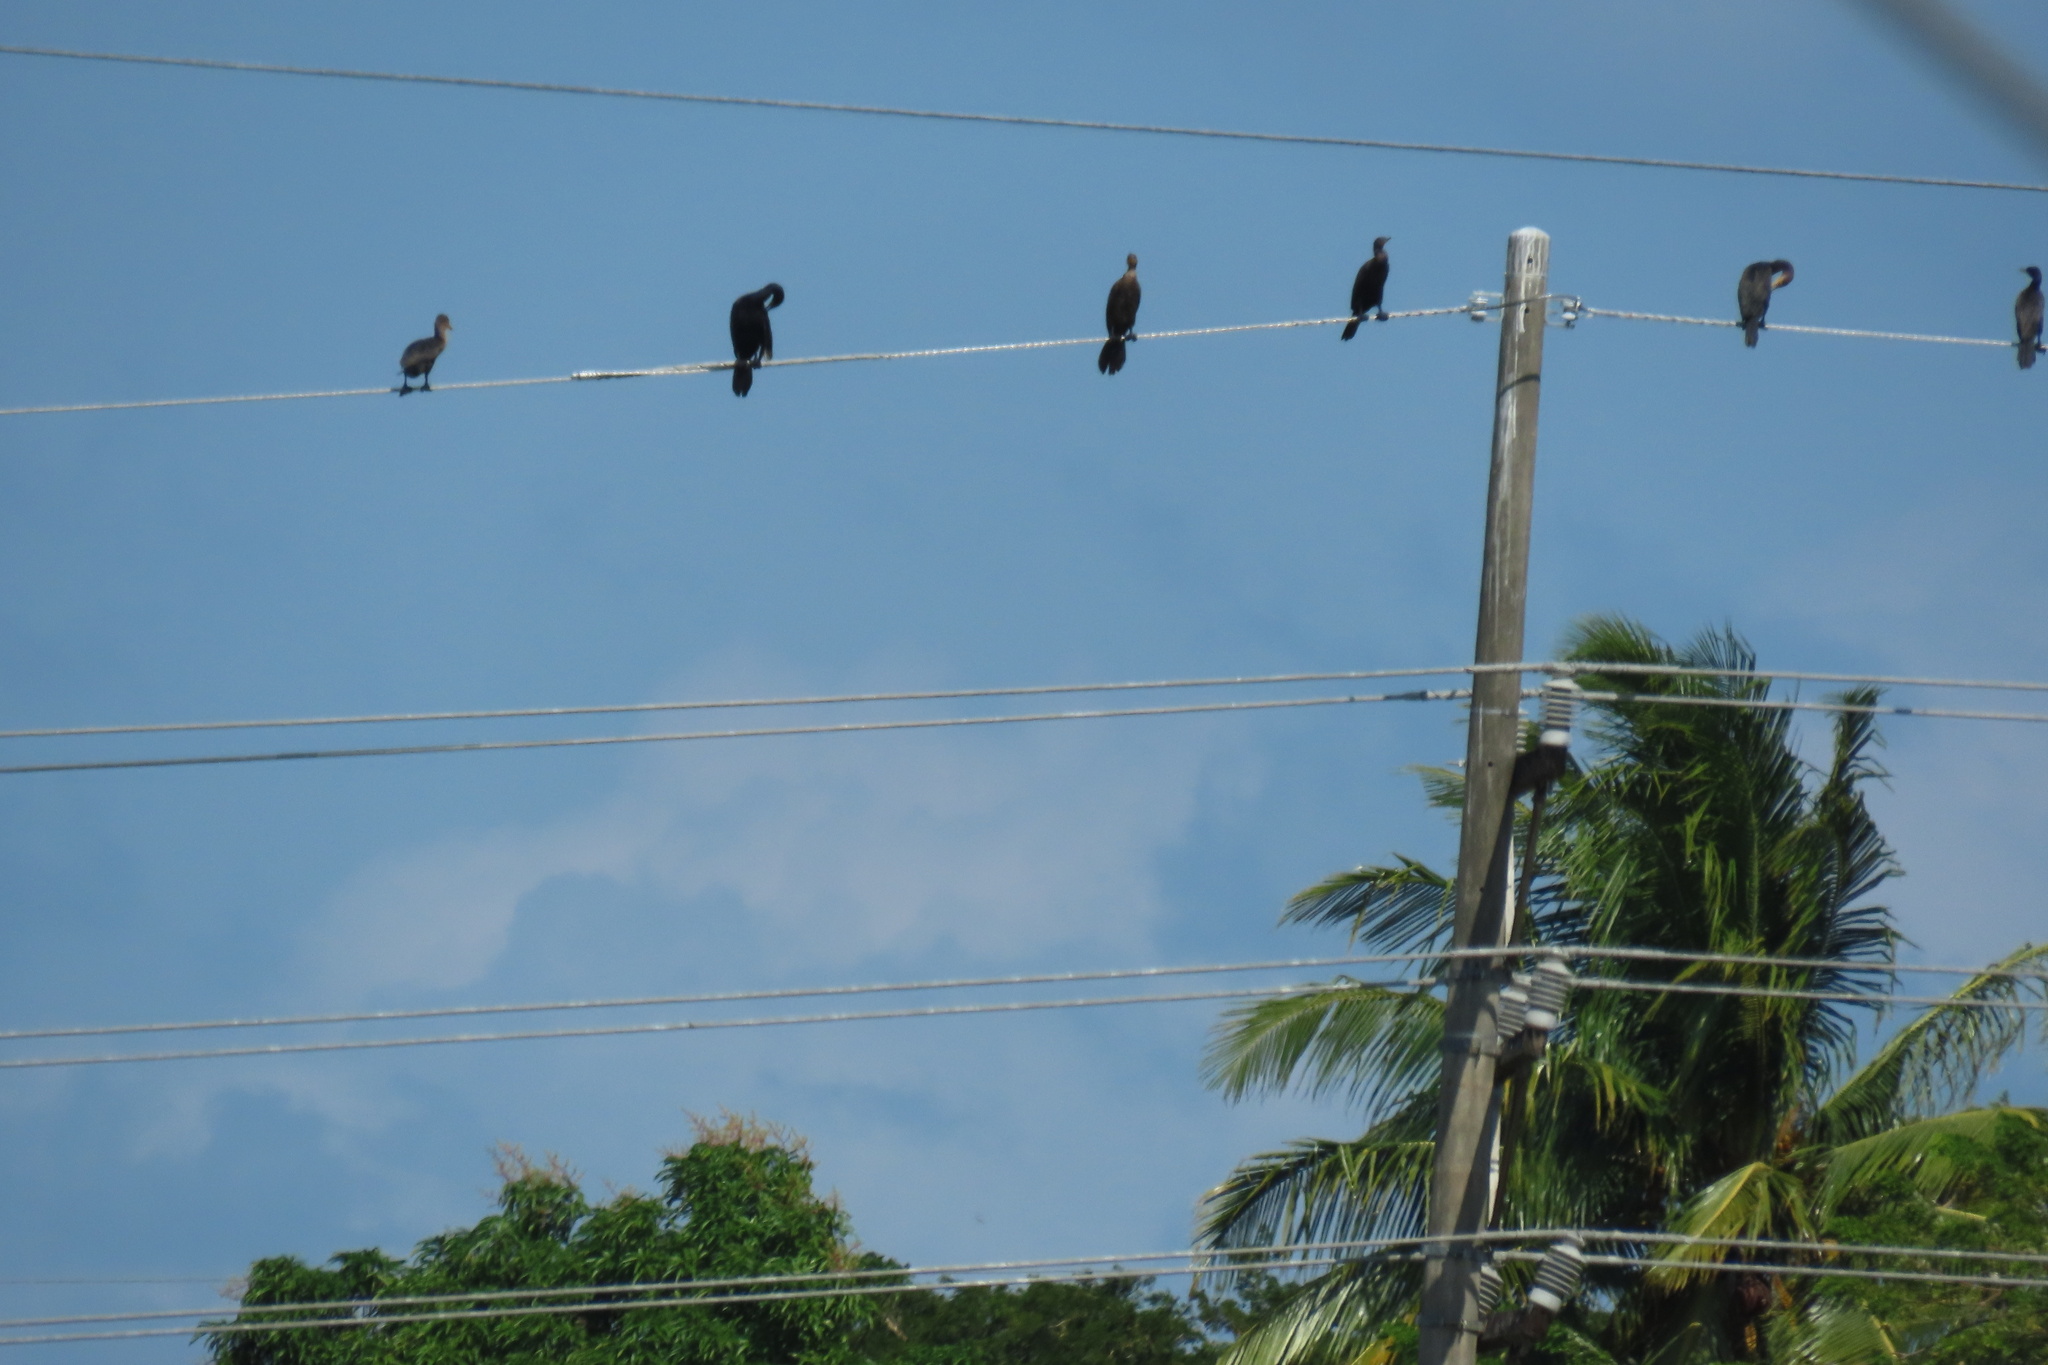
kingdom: Animalia
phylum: Chordata
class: Aves
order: Suliformes
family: Phalacrocoracidae
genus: Phalacrocorax
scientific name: Phalacrocorax brasilianus
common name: Neotropic cormorant
